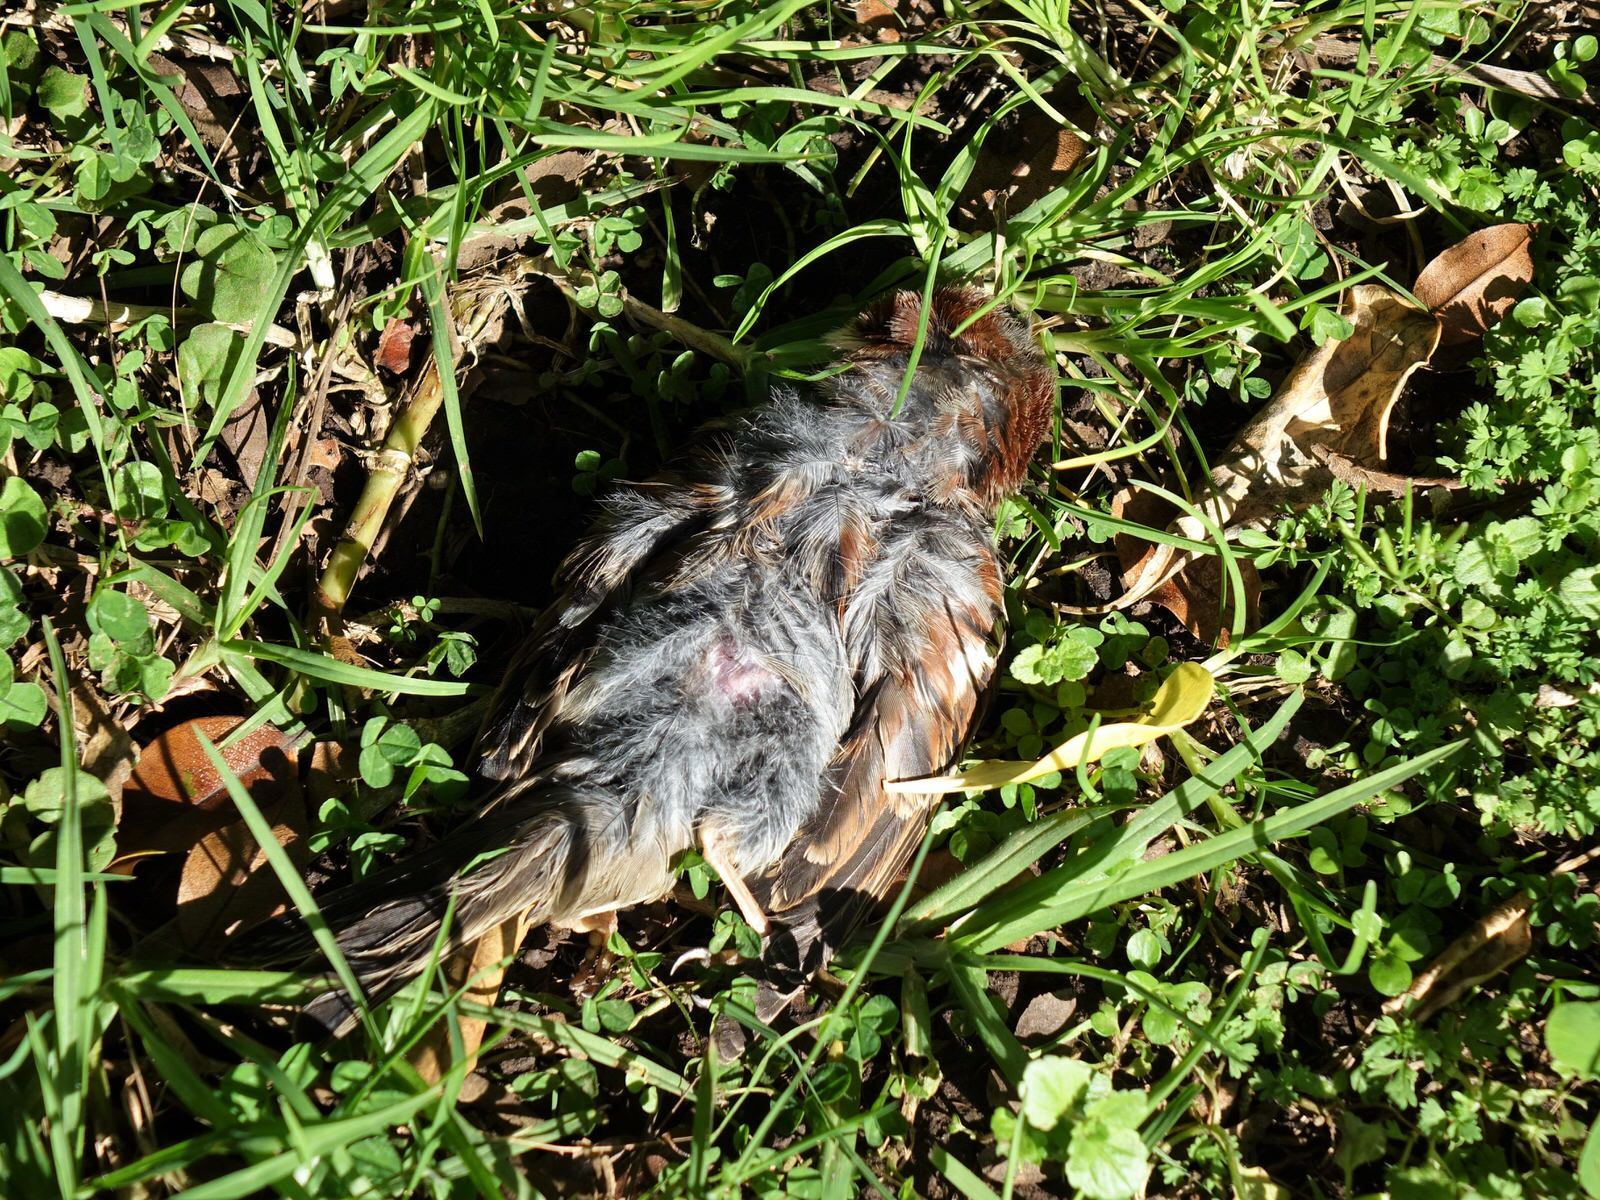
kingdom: Animalia
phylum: Chordata
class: Aves
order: Passeriformes
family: Passeridae
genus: Passer
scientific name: Passer domesticus
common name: House sparrow
